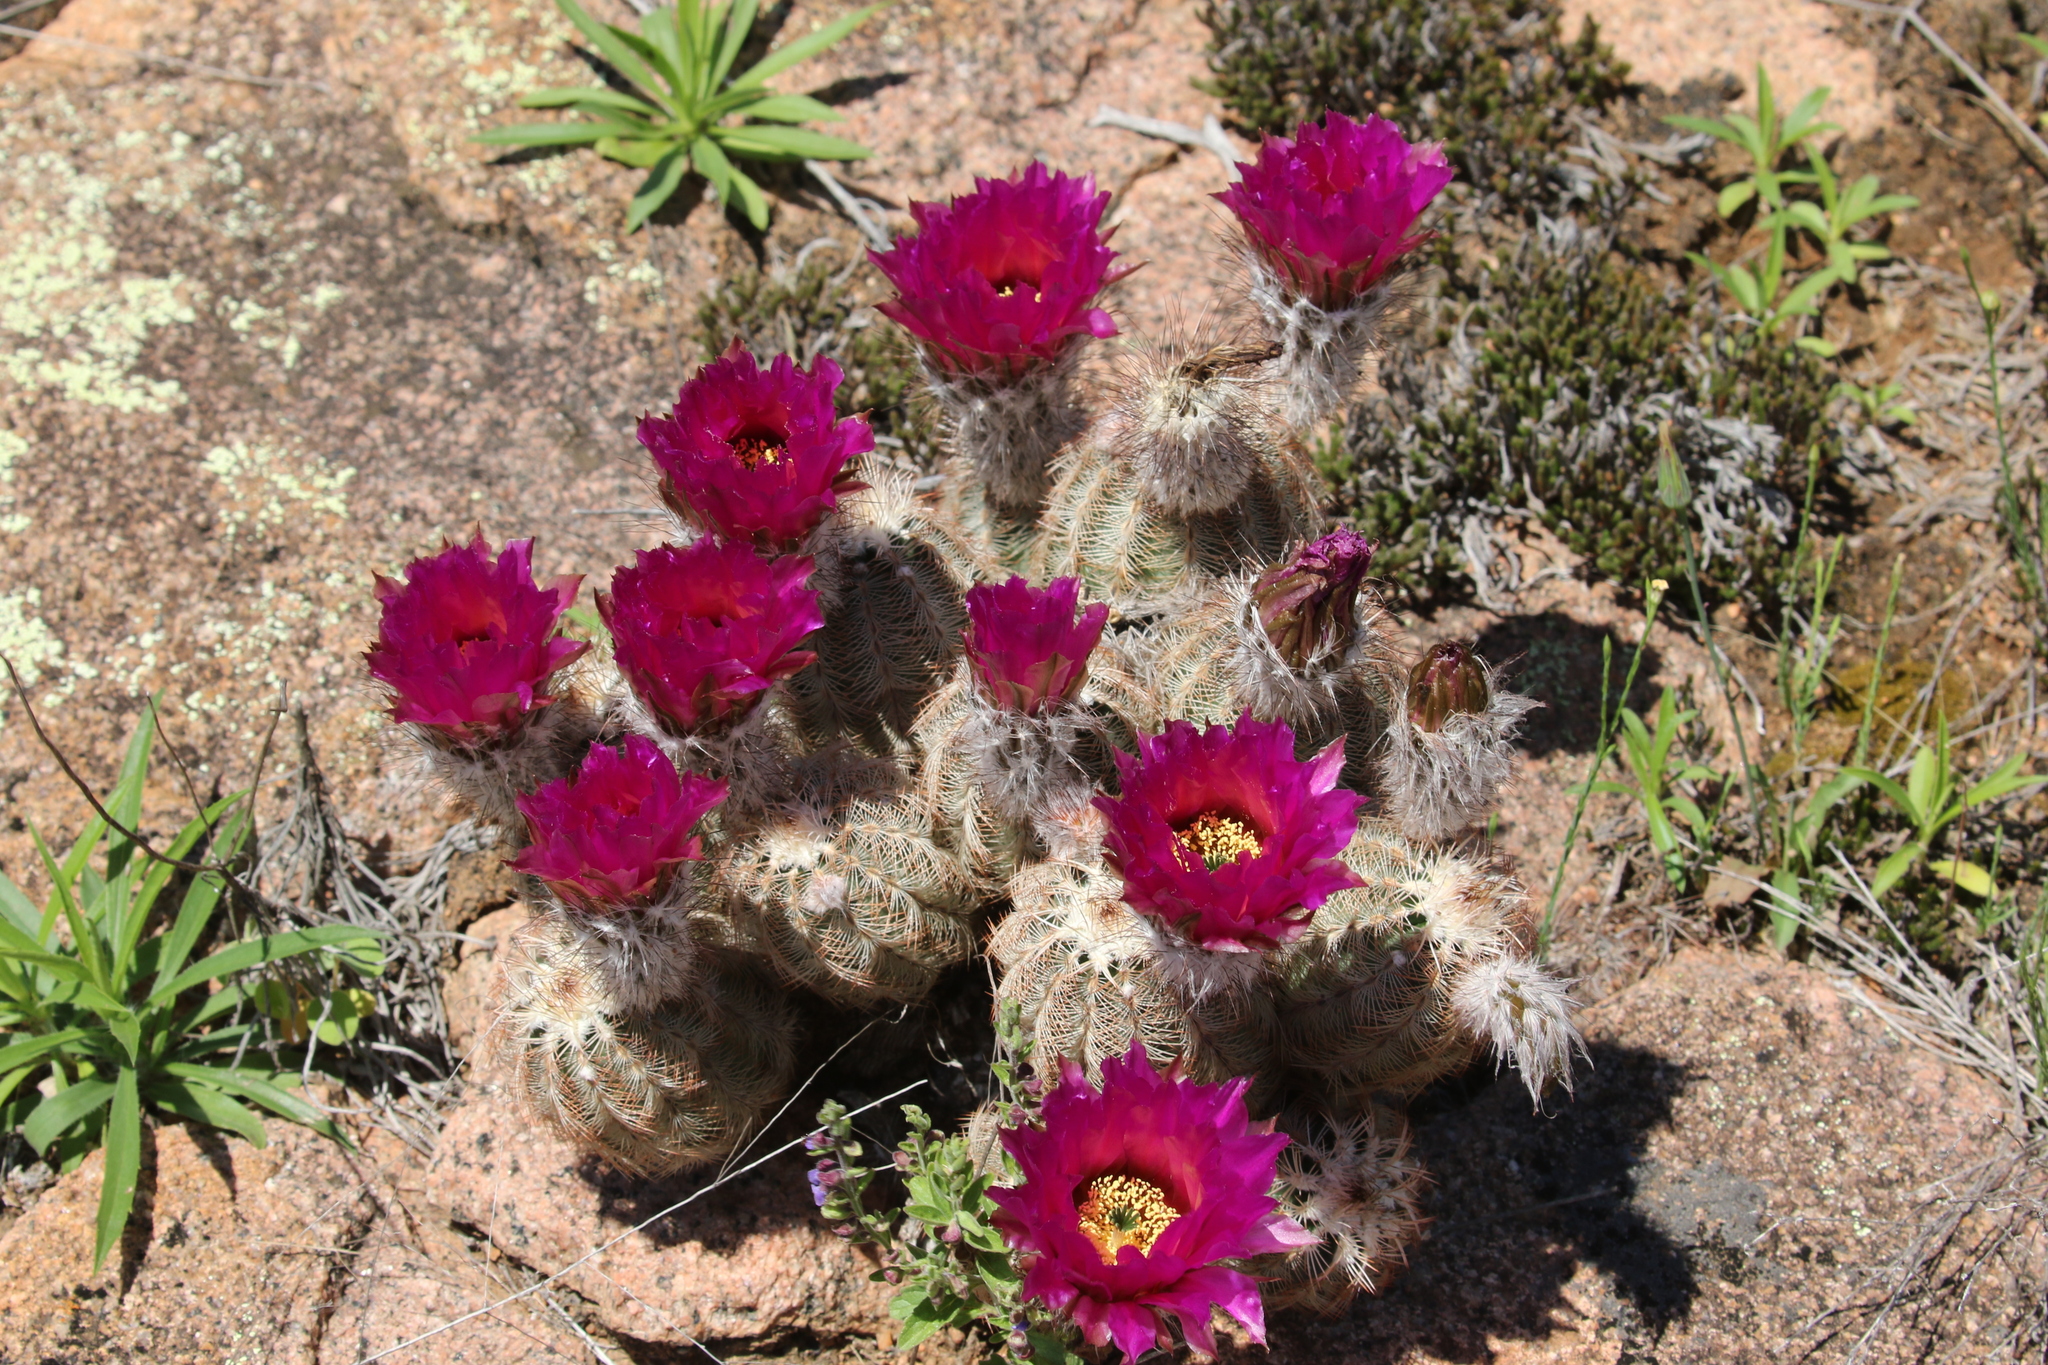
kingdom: Plantae
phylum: Tracheophyta
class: Magnoliopsida
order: Caryophyllales
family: Cactaceae
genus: Echinocereus
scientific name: Echinocereus reichenbachii
